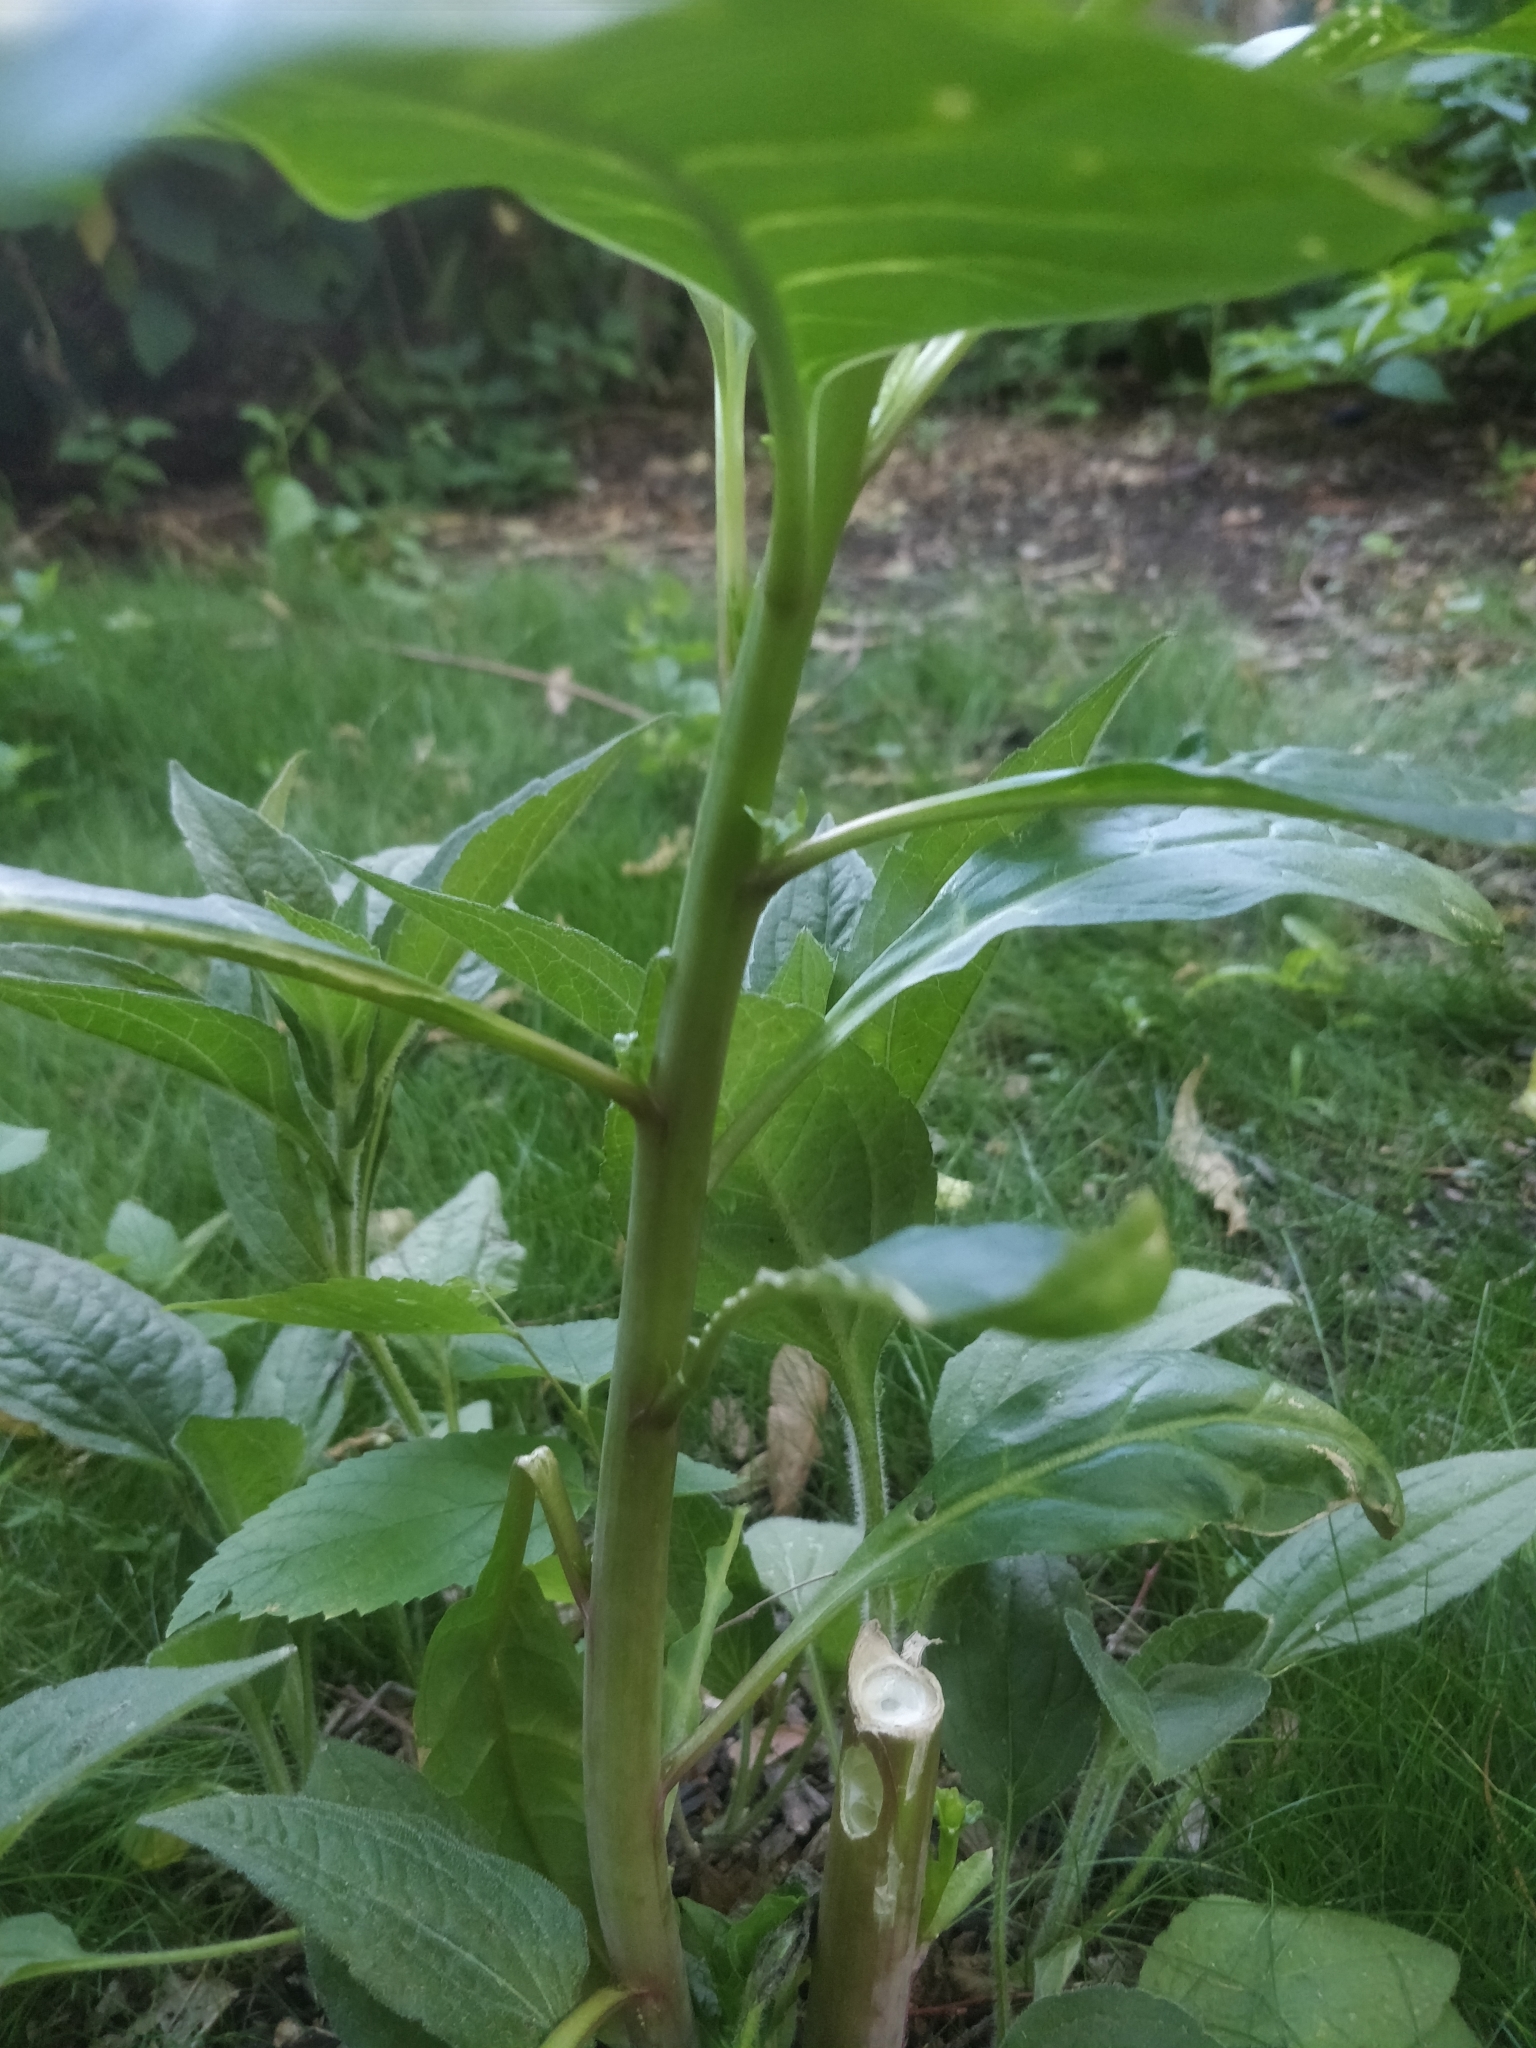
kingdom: Plantae
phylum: Tracheophyta
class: Magnoliopsida
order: Caryophyllales
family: Phytolaccaceae
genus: Phytolacca
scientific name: Phytolacca americana
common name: American pokeweed
